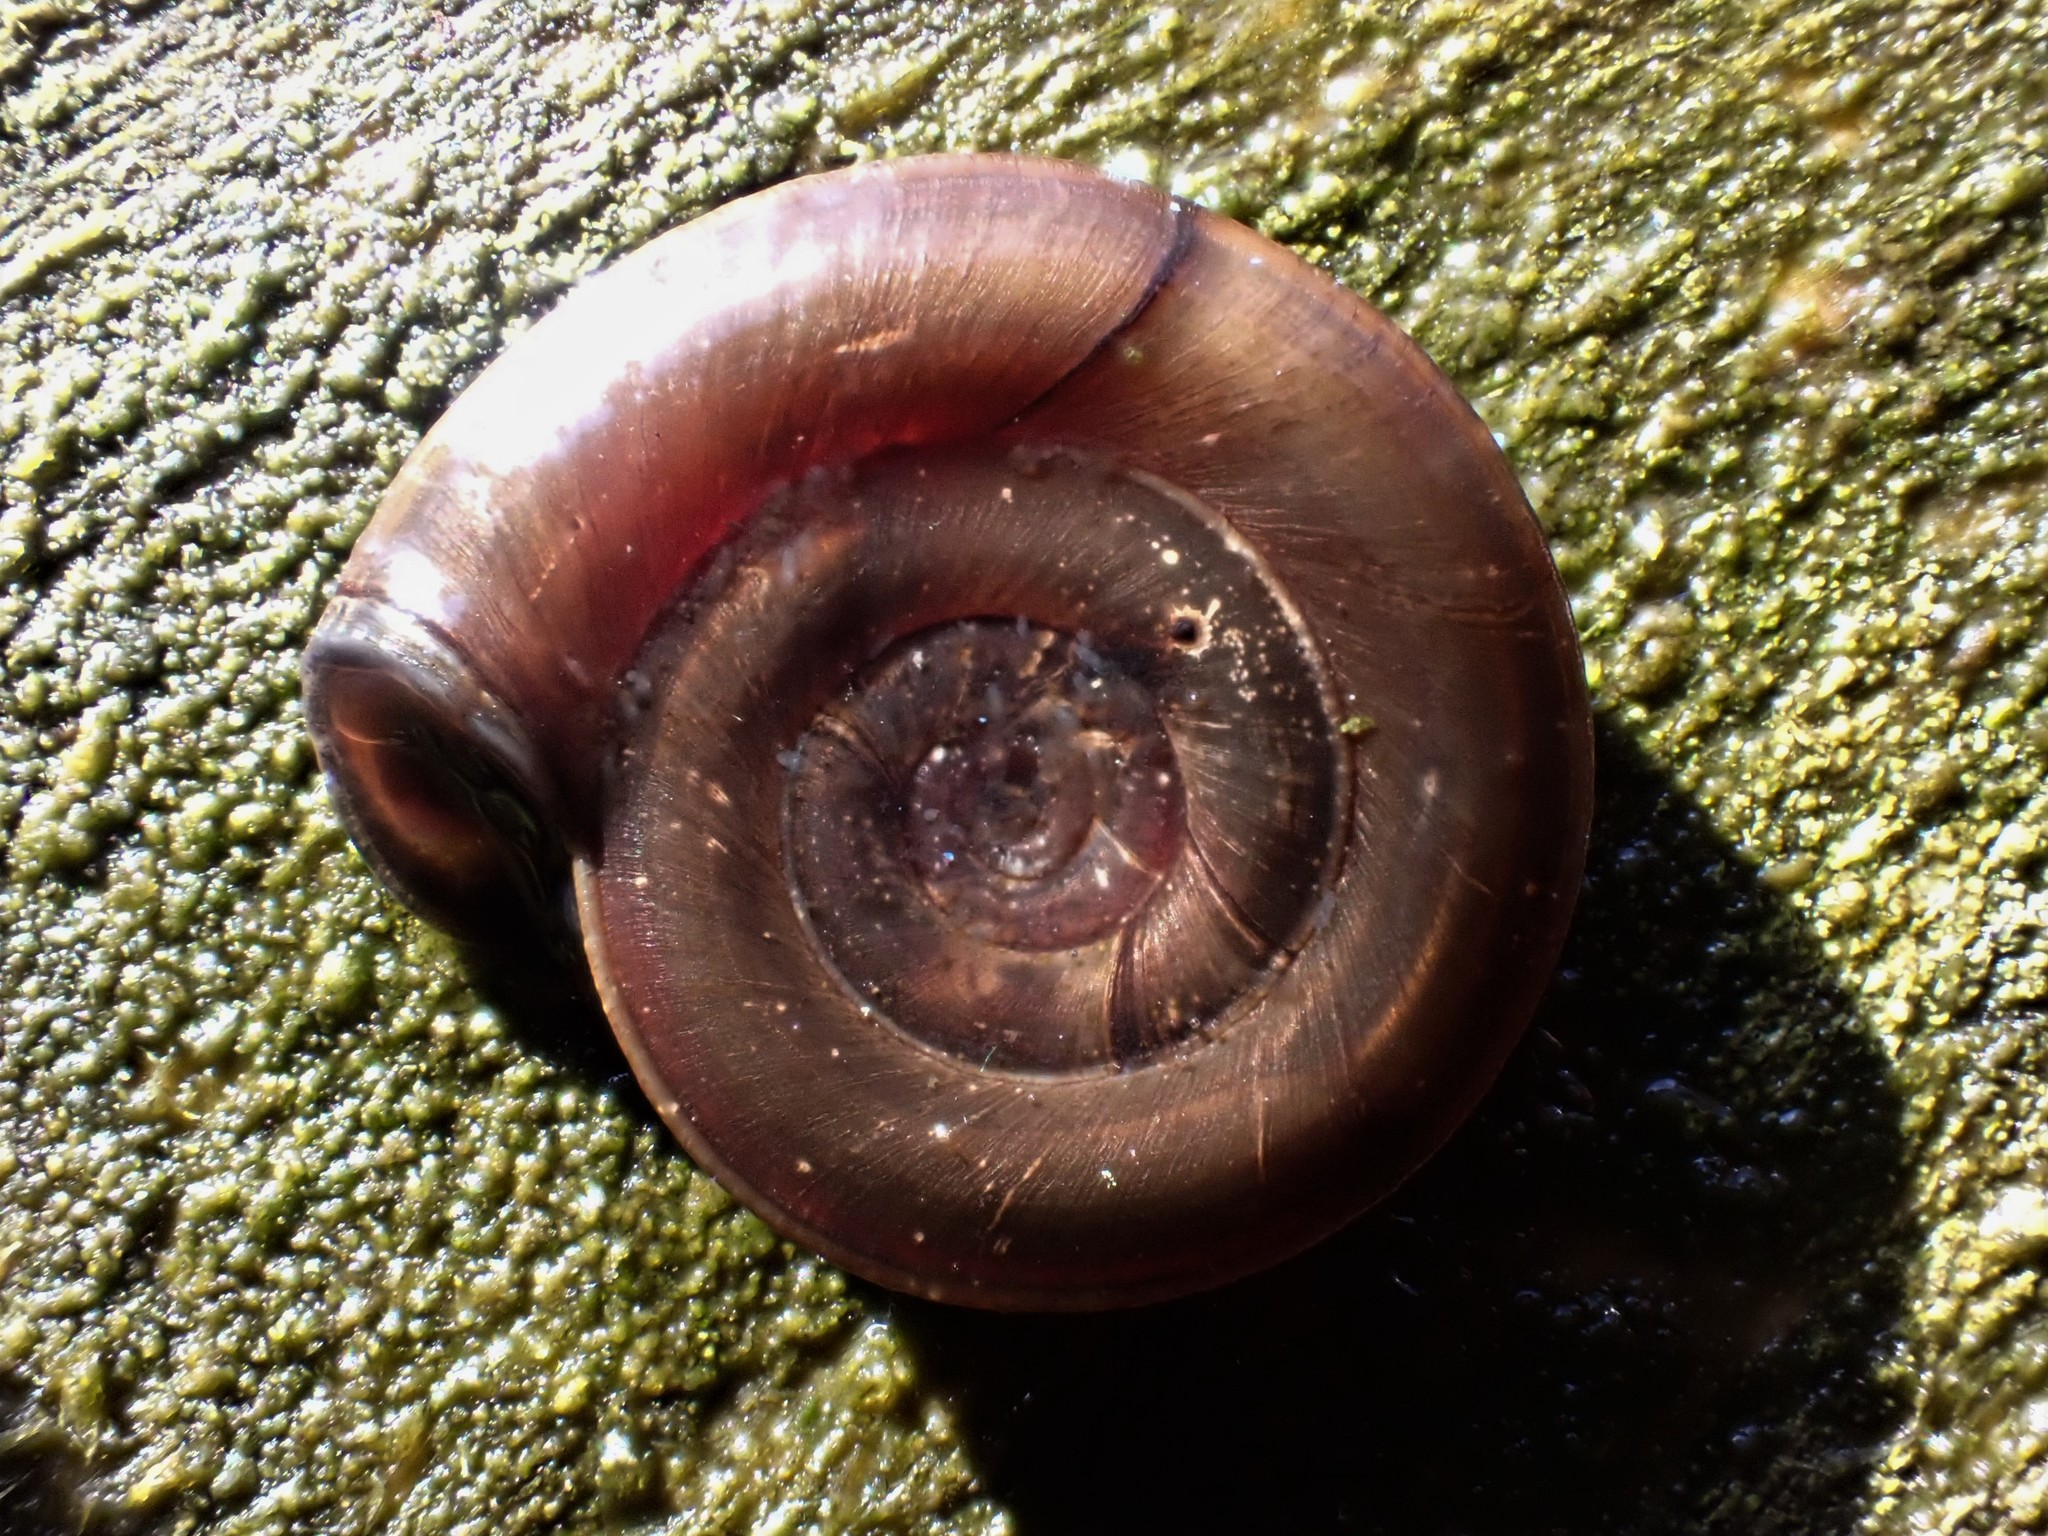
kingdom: Animalia
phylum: Mollusca
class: Gastropoda
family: Planorbidae
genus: Planorbis
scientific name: Planorbis planorbis
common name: Margined ramshorn
